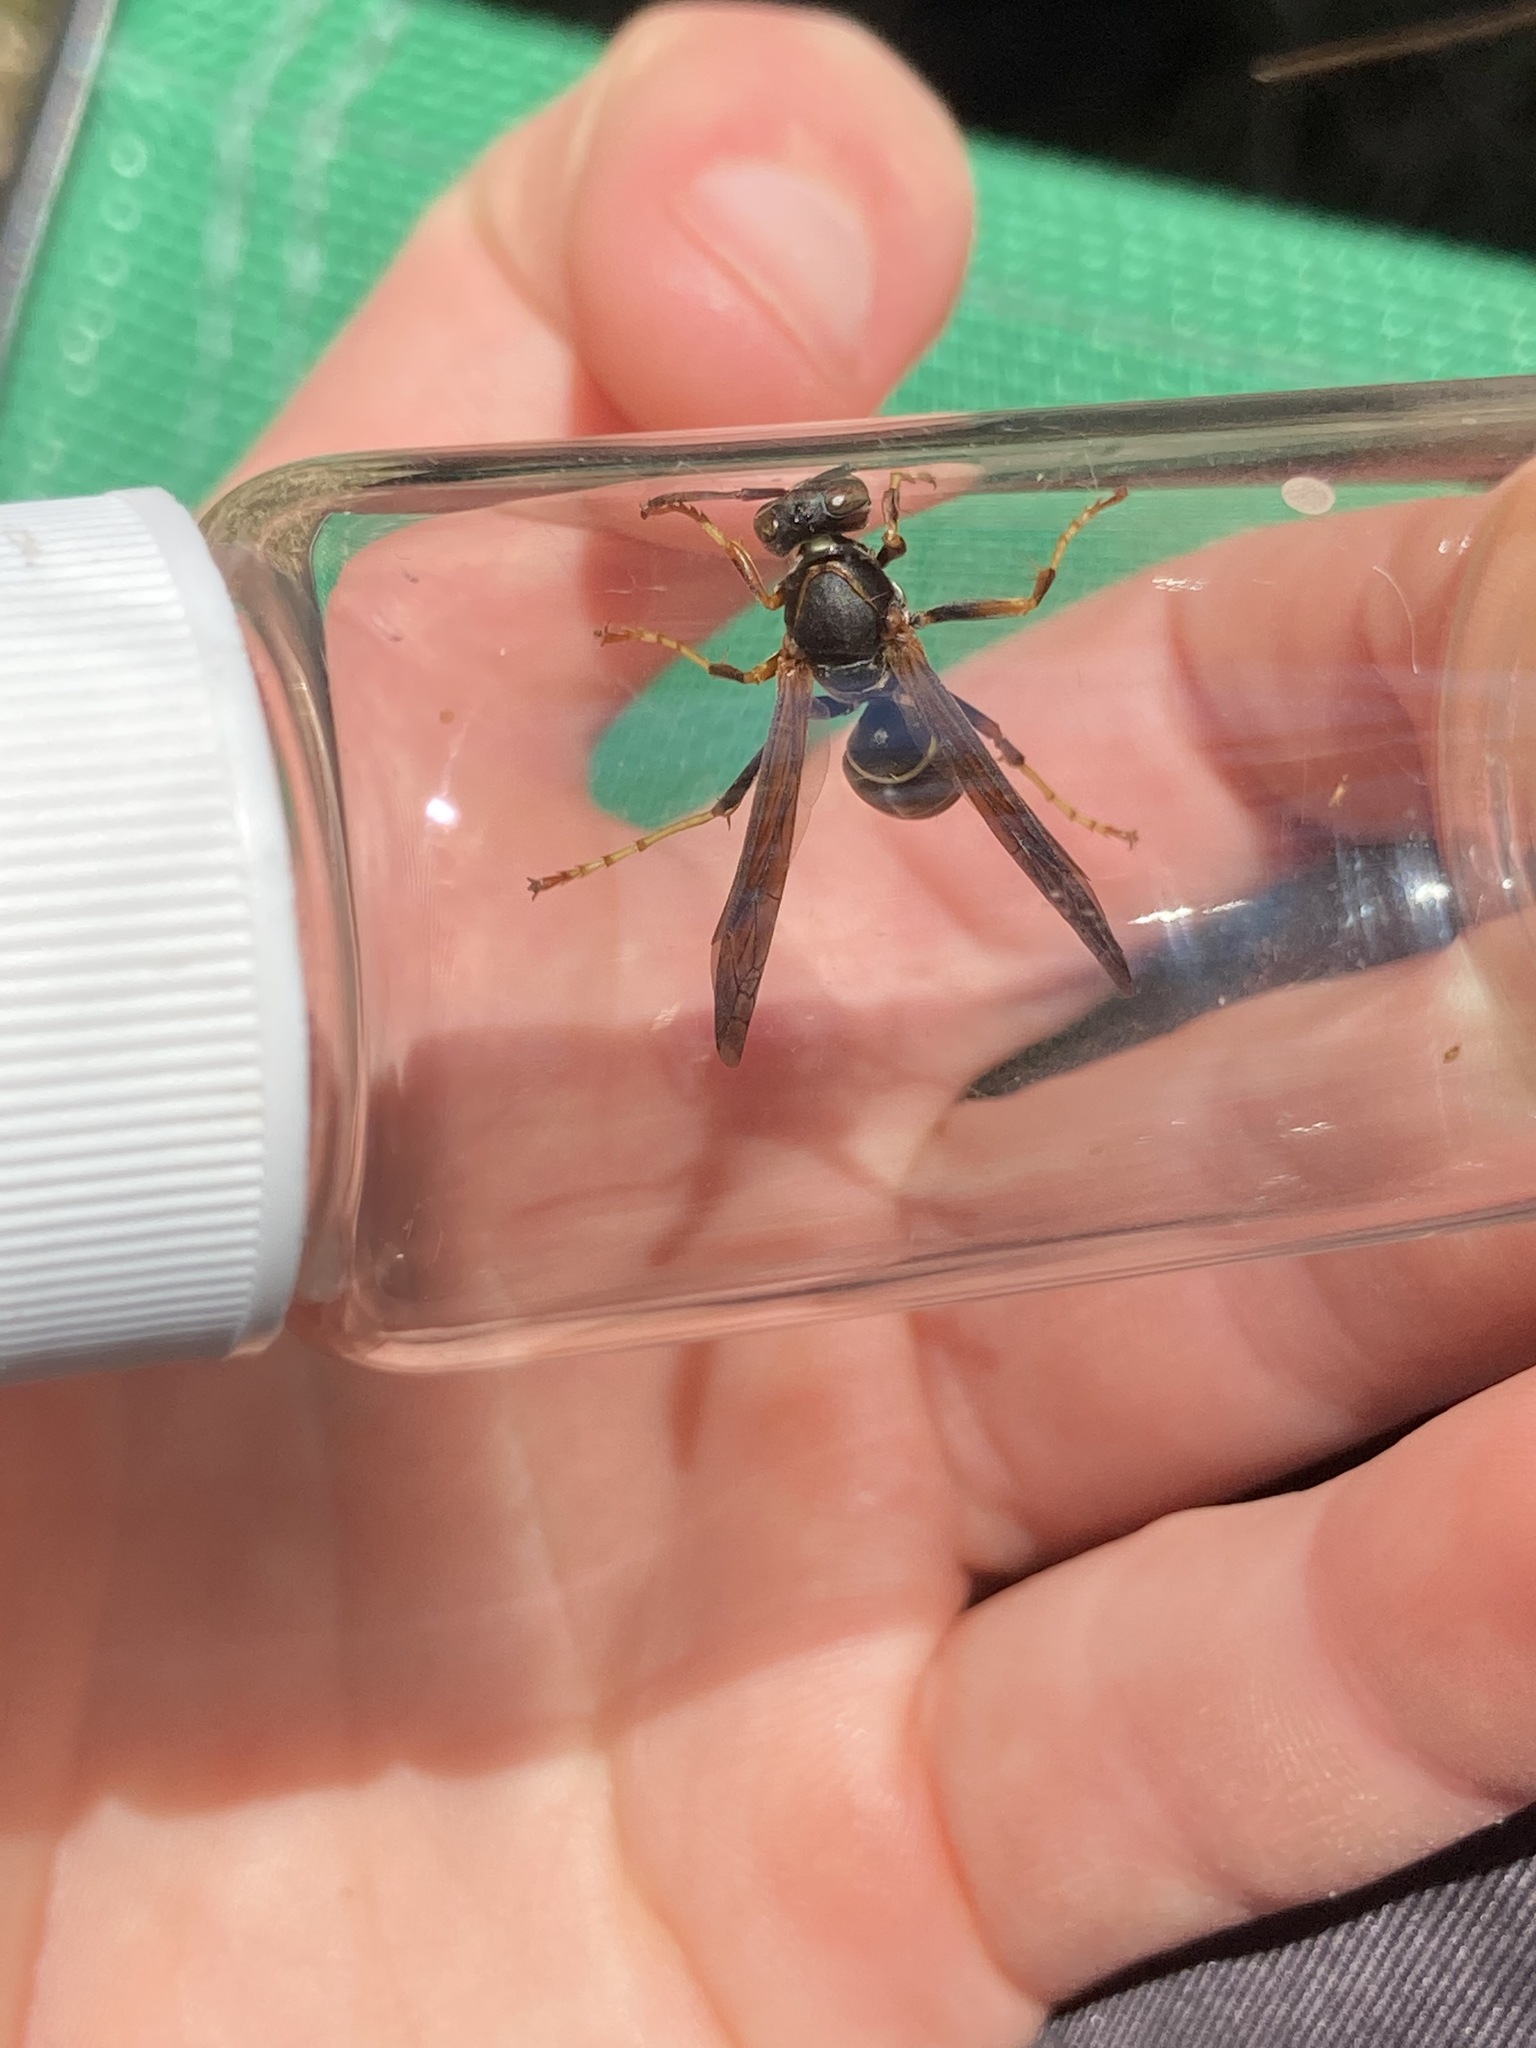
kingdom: Animalia
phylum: Arthropoda
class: Insecta
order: Hymenoptera
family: Eumenidae
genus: Polistes
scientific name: Polistes fuscatus
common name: Dark paper wasp
